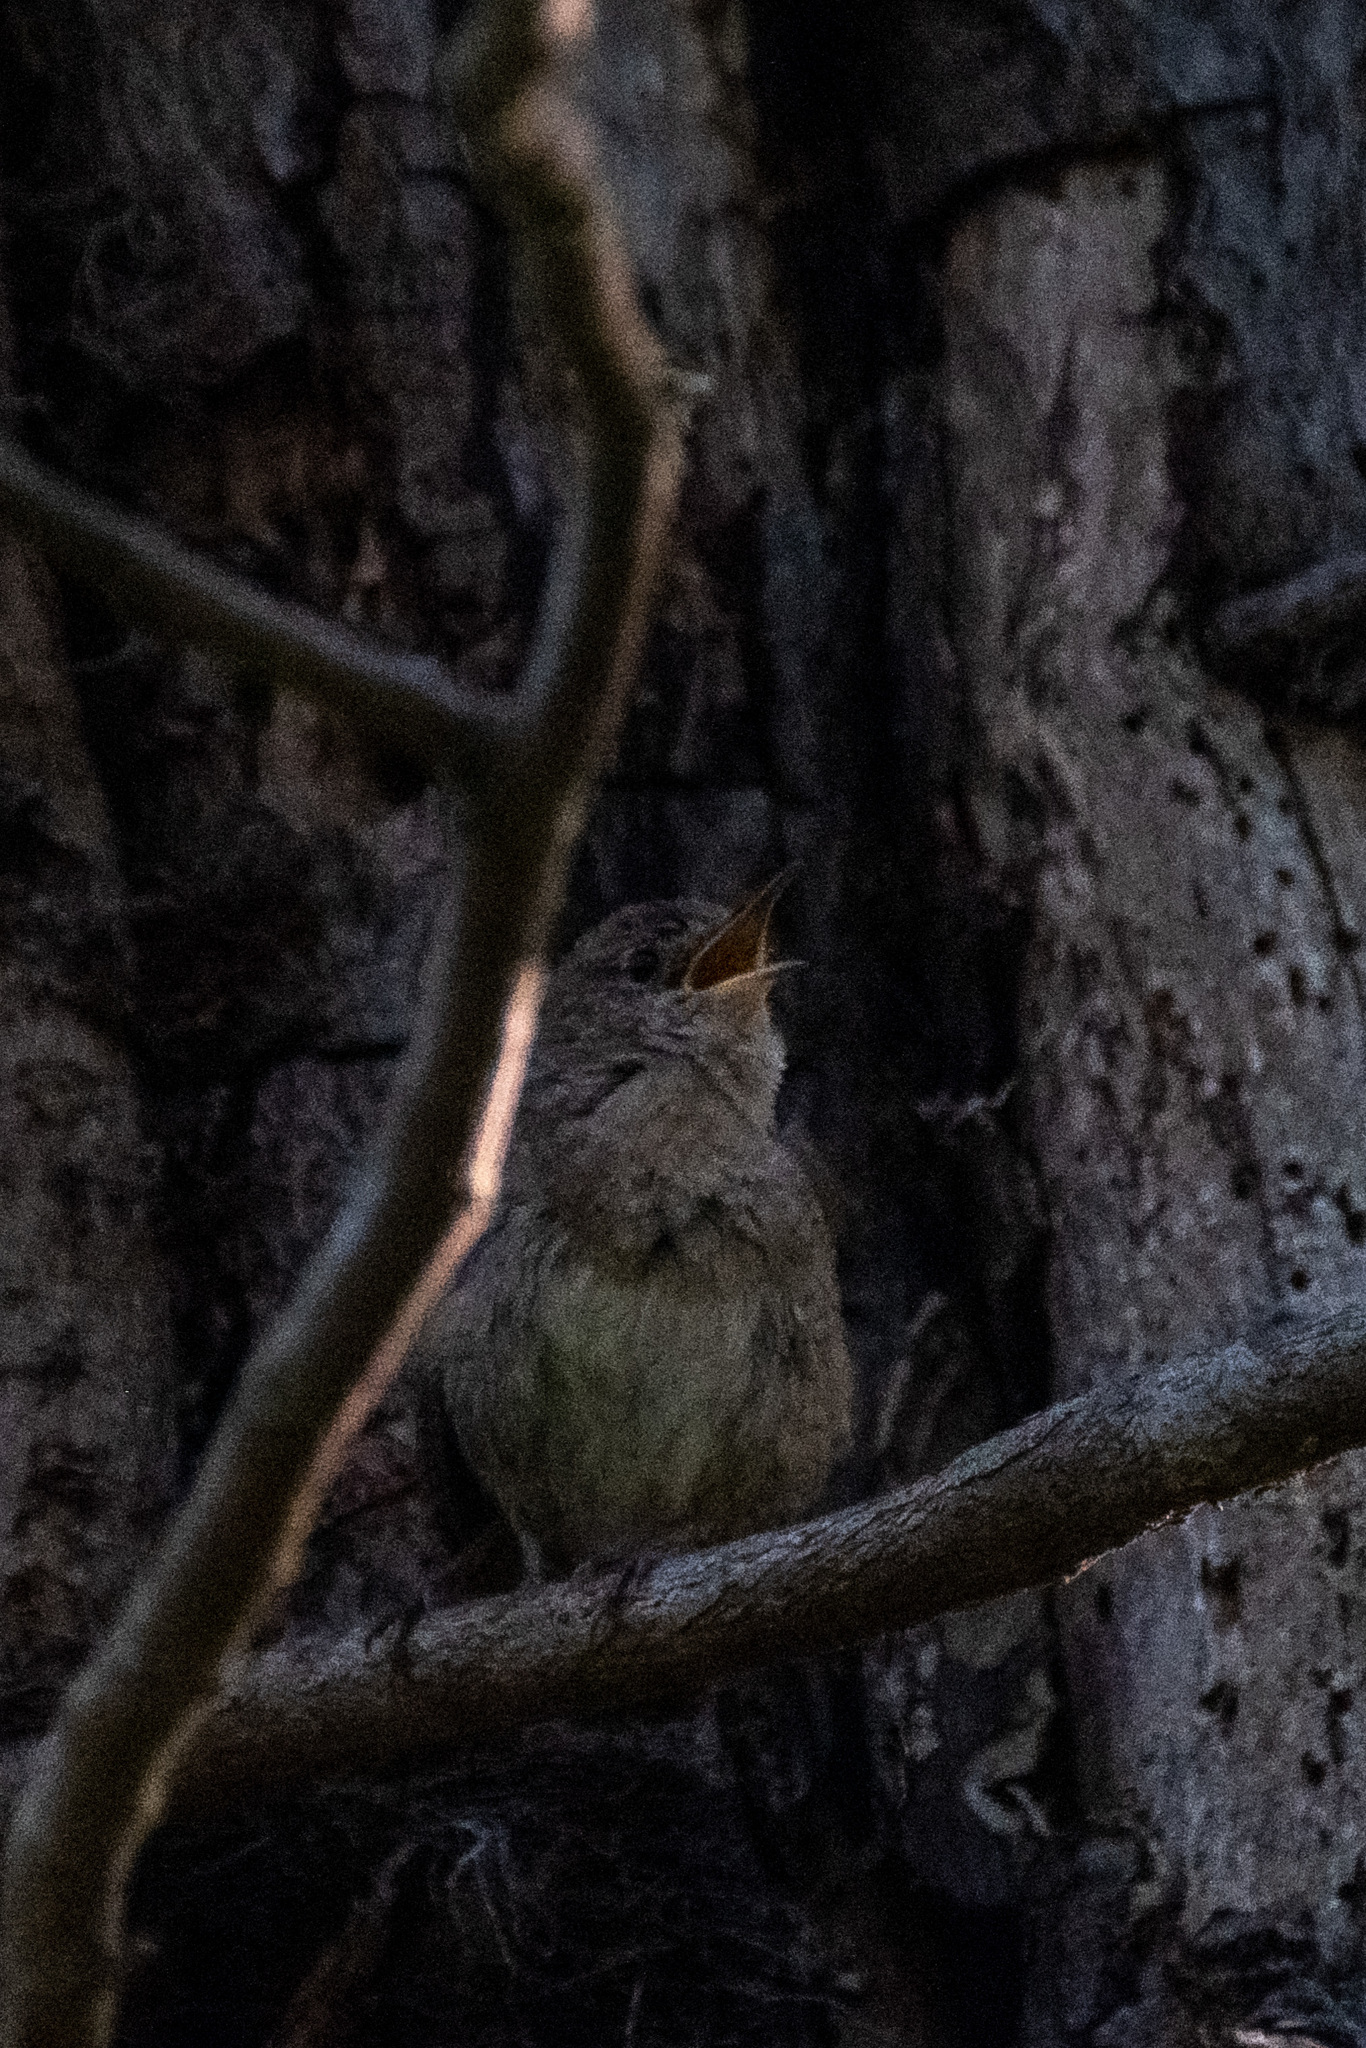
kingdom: Animalia
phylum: Chordata
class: Aves
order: Passeriformes
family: Troglodytidae
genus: Troglodytes
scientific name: Troglodytes aedon
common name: House wren
